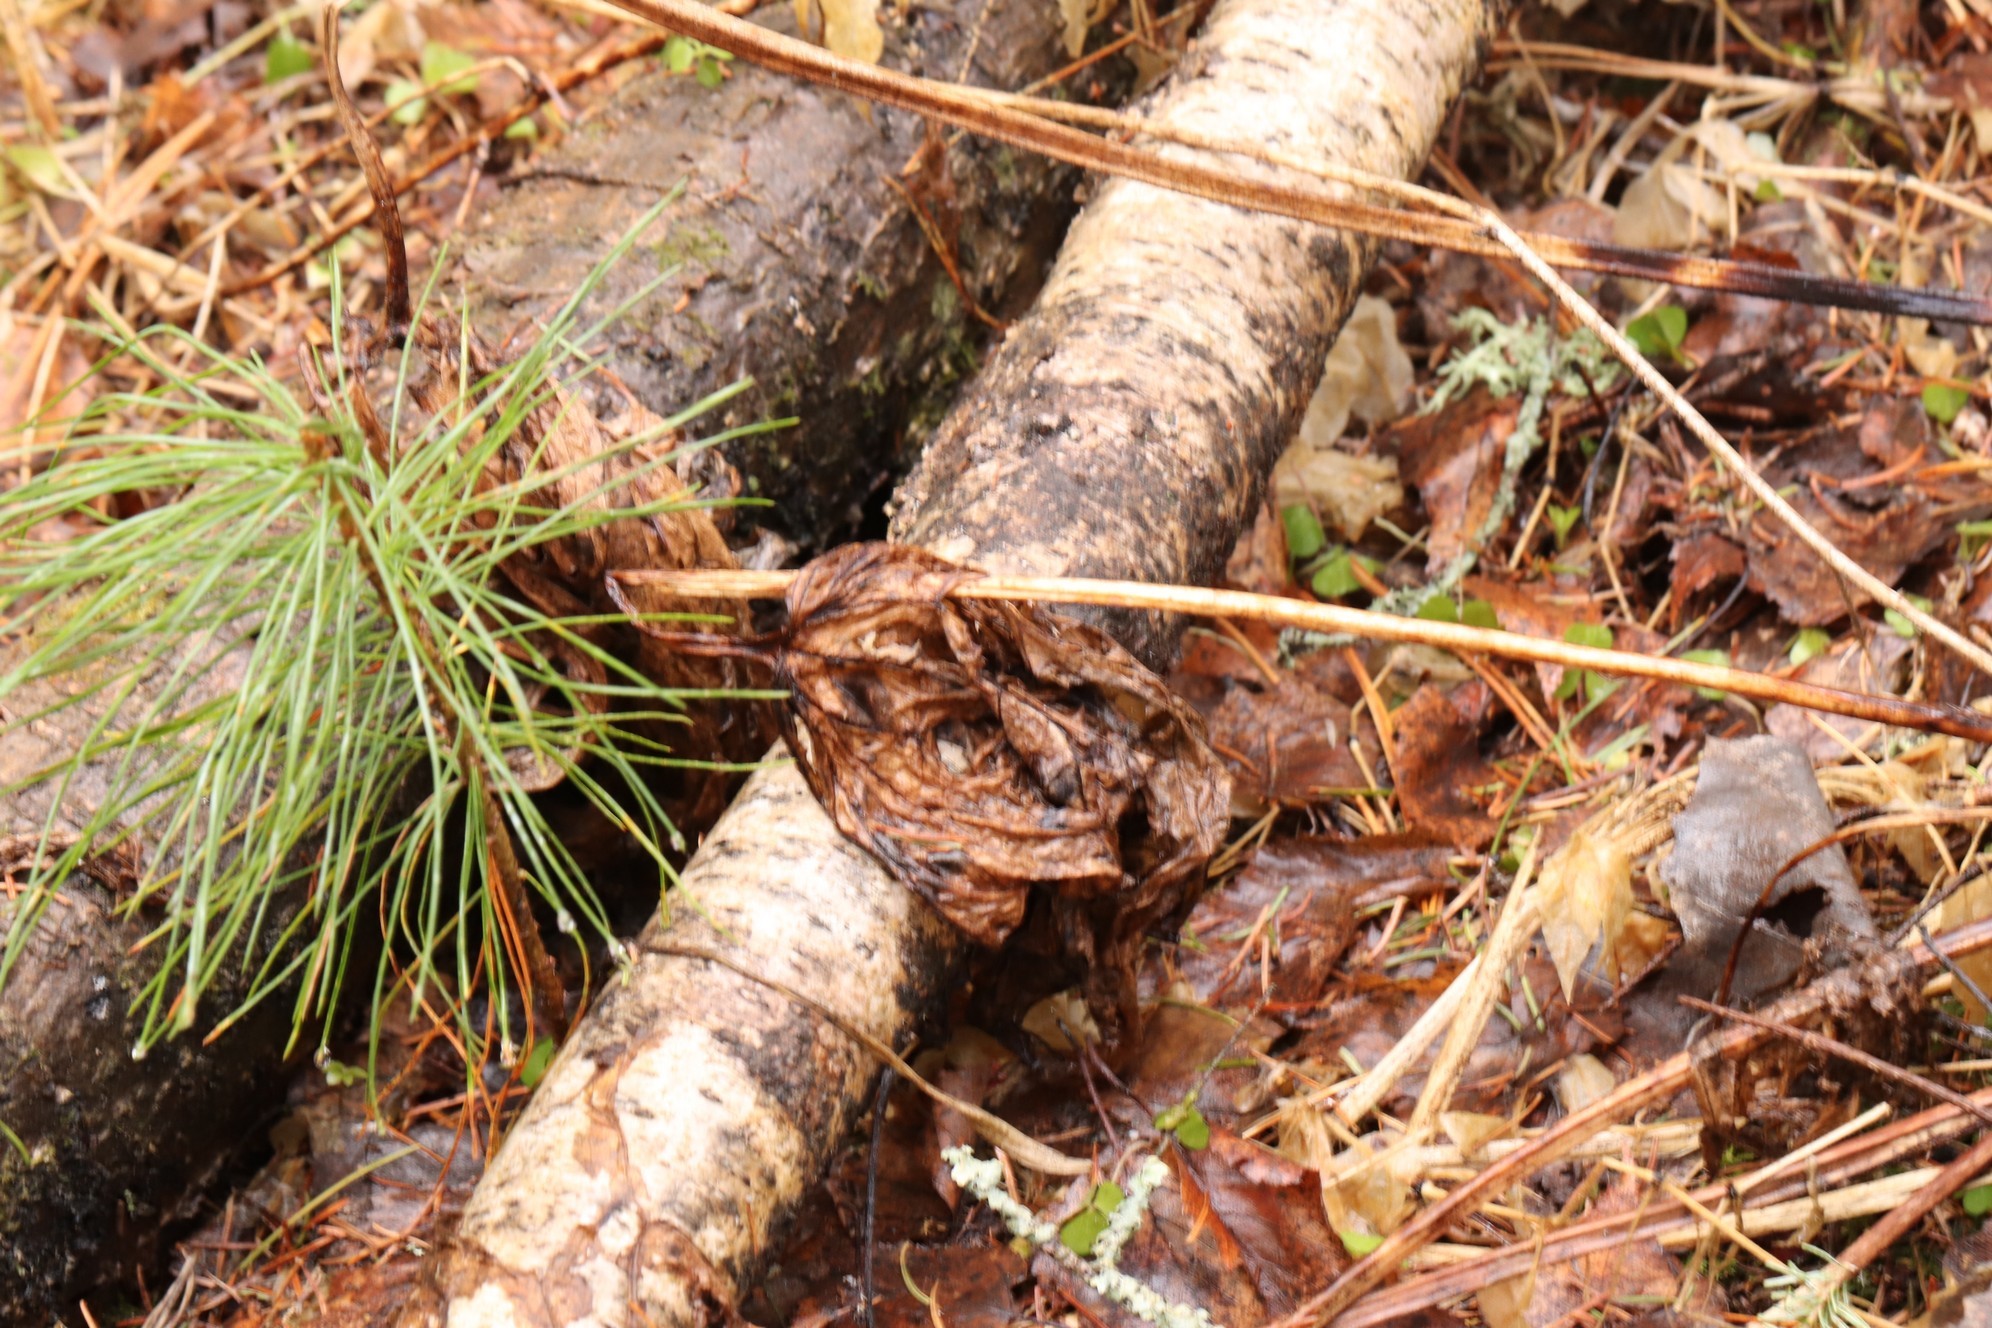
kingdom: Plantae
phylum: Tracheophyta
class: Magnoliopsida
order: Ranunculales
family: Ranunculaceae
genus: Aconitum
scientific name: Aconitum septentrionale
